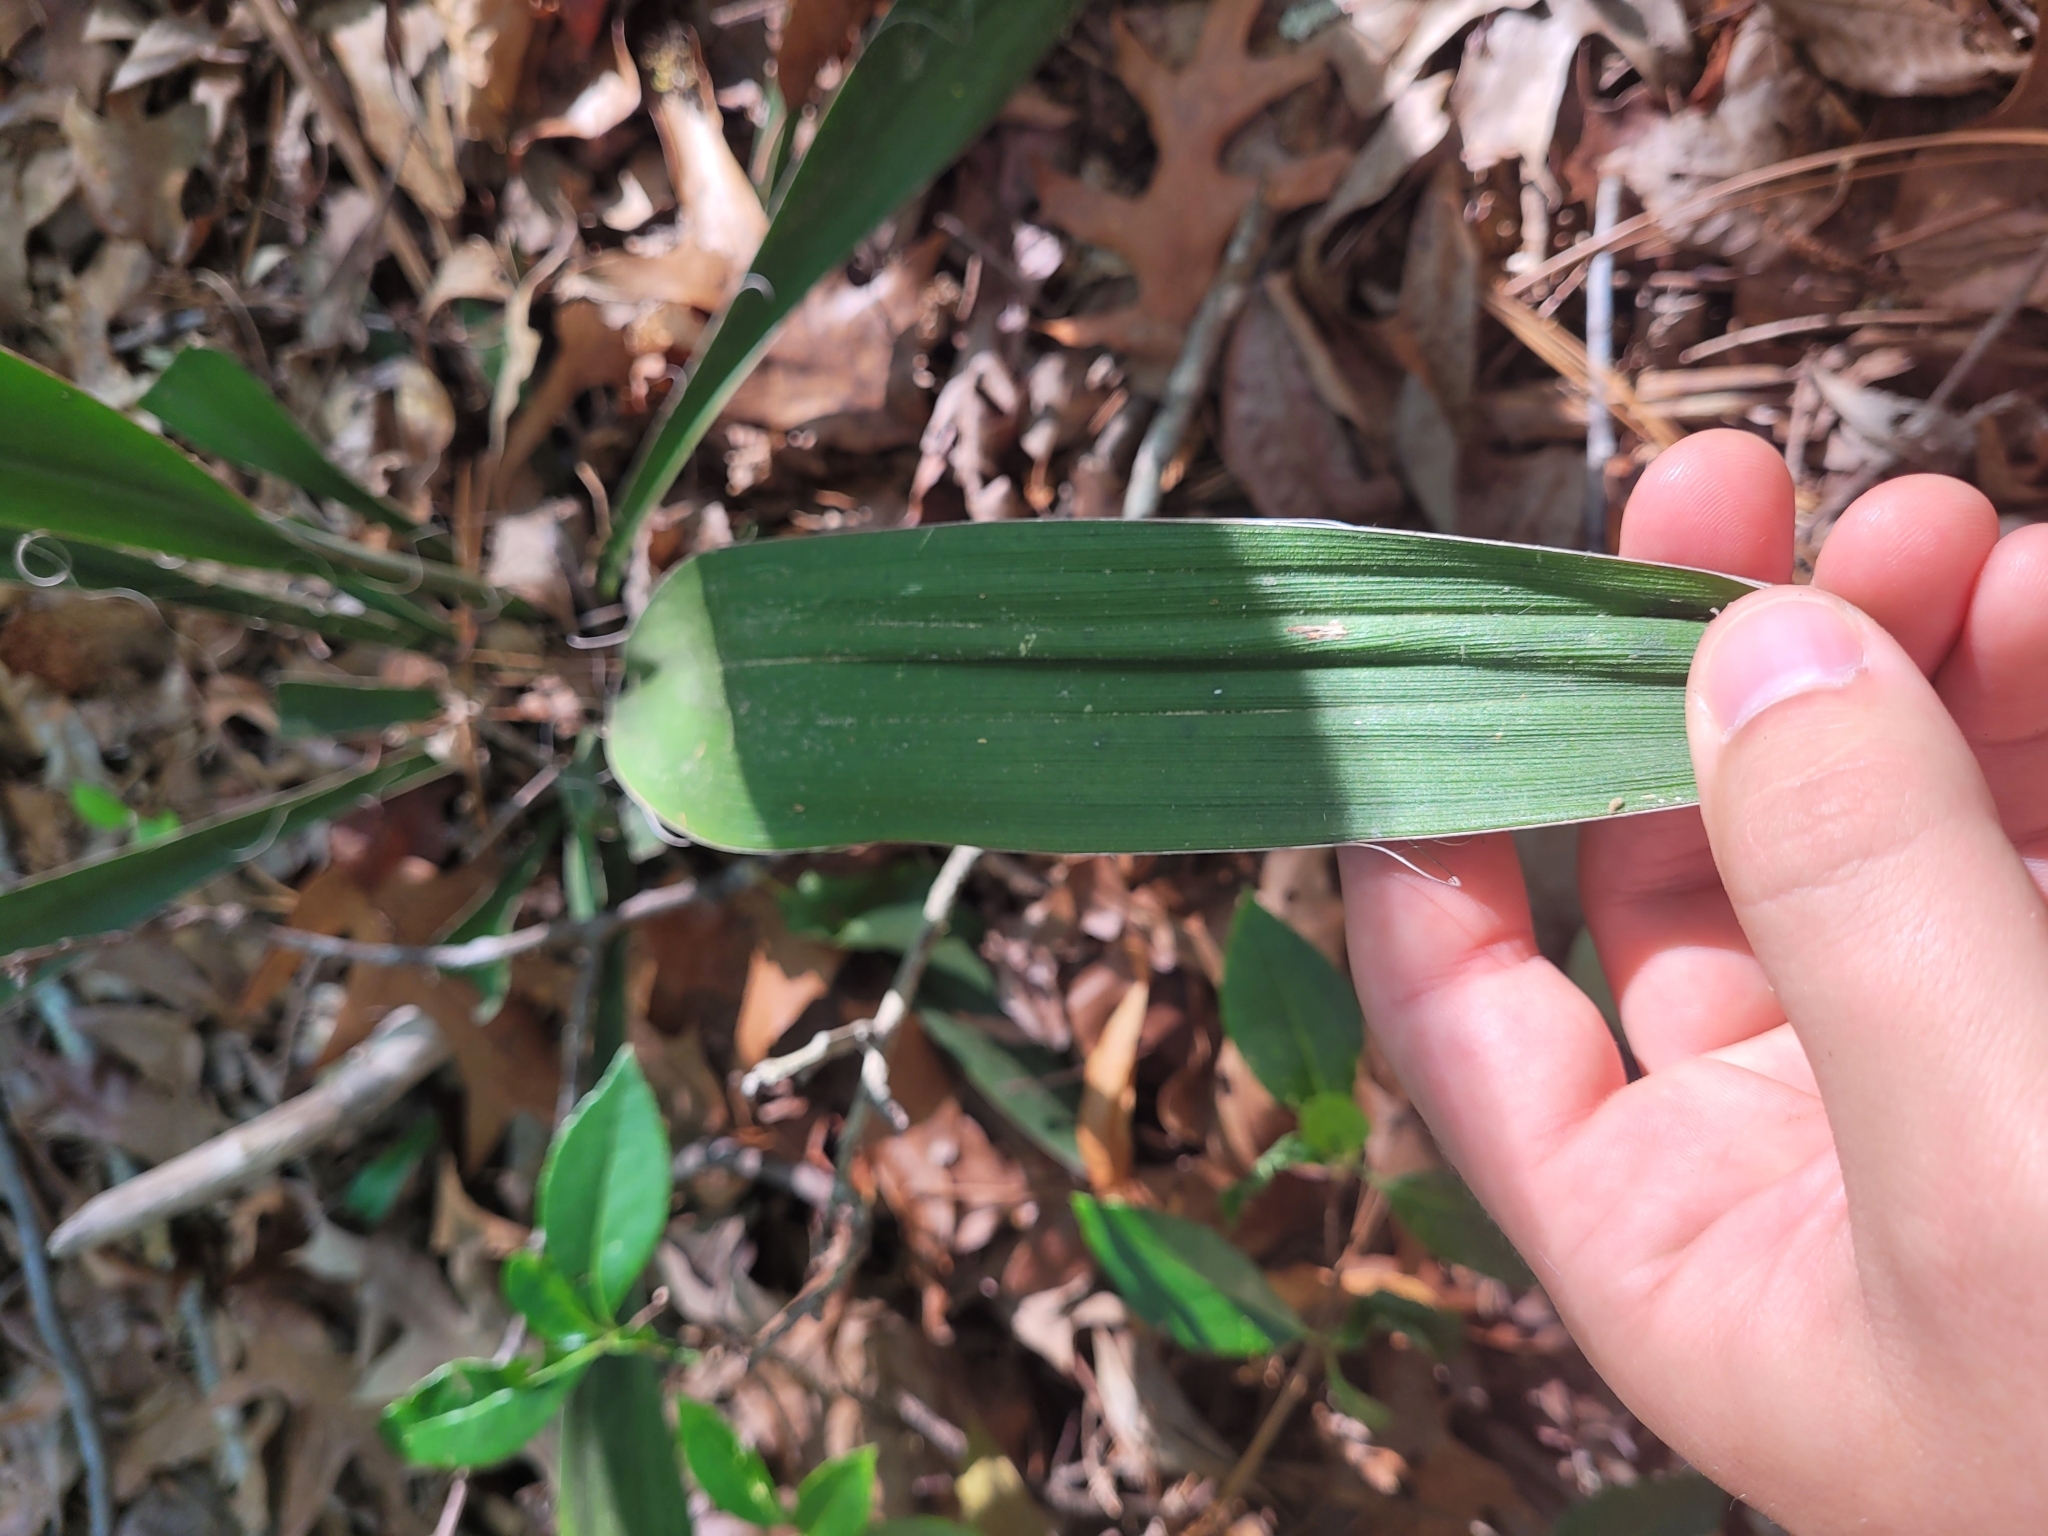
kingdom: Plantae
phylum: Tracheophyta
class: Liliopsida
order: Asparagales
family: Asparagaceae
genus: Yucca
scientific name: Yucca filamentosa
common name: Adam's-needle
